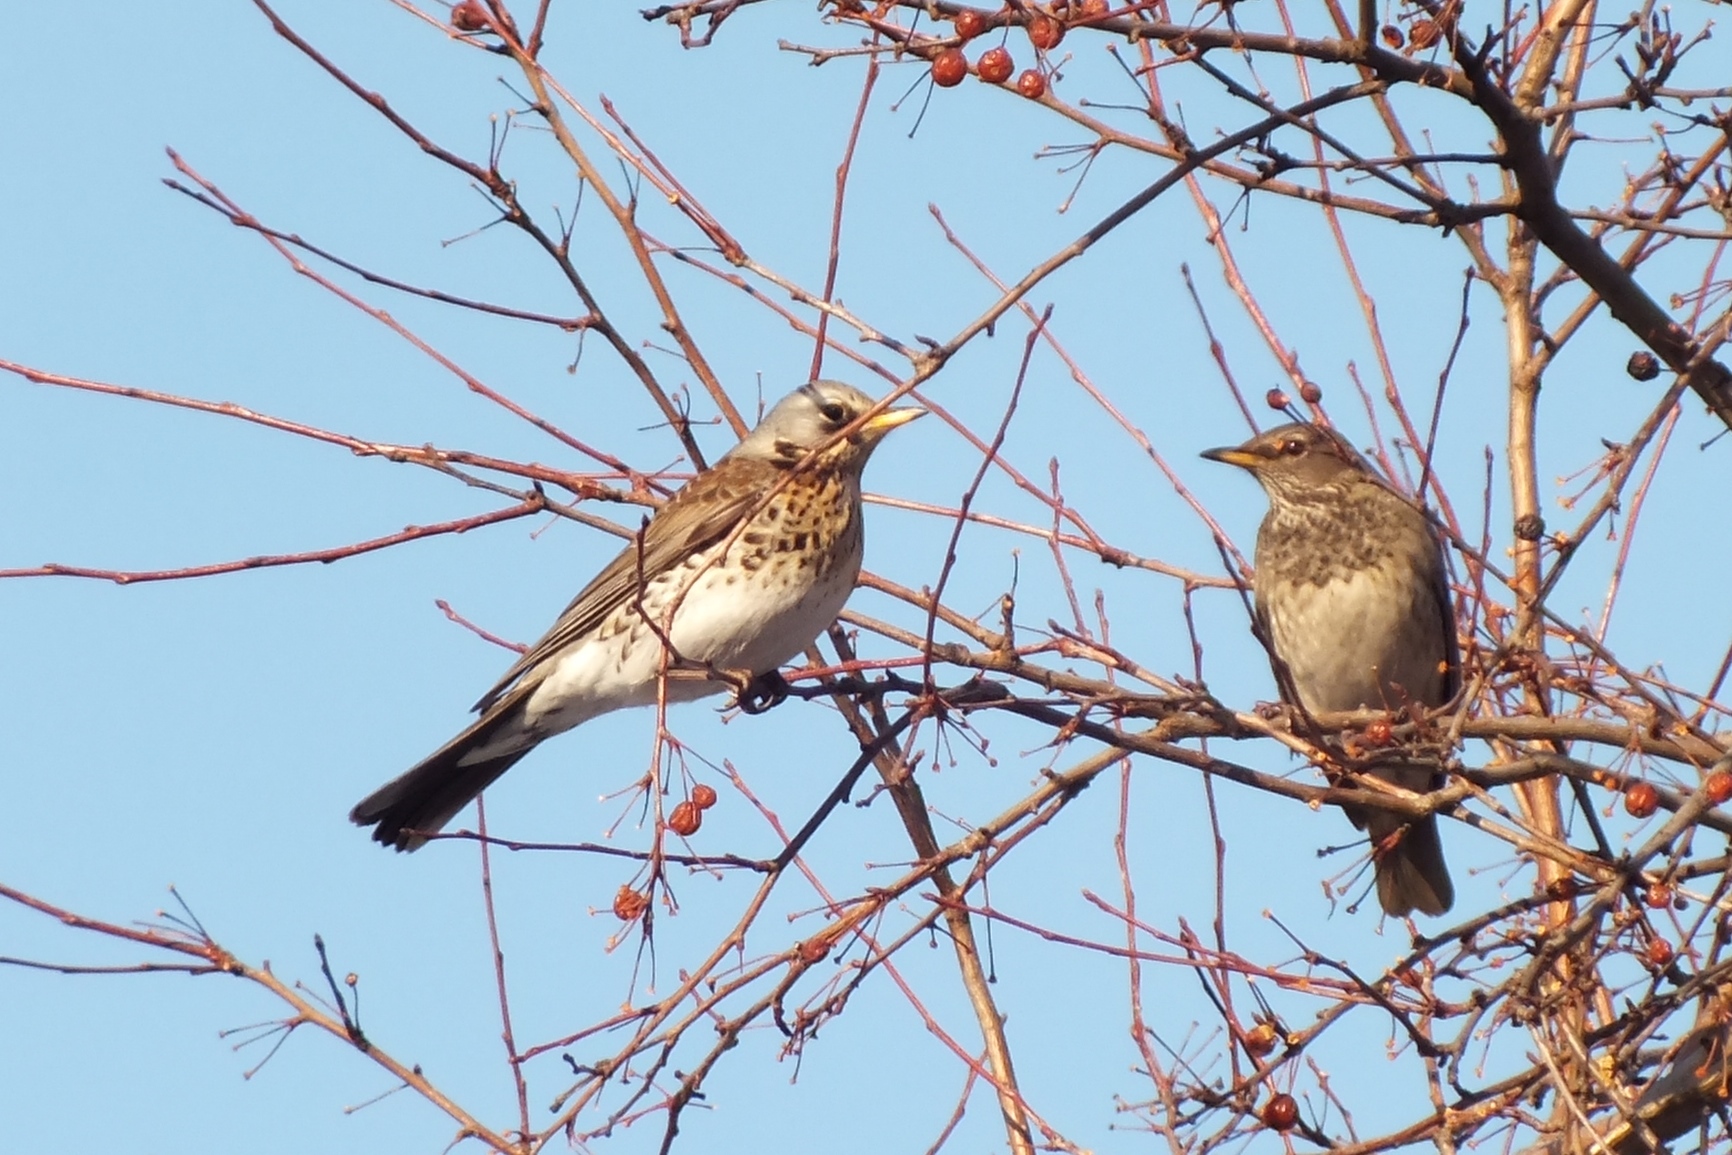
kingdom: Animalia
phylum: Chordata
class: Aves
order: Passeriformes
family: Turdidae
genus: Turdus
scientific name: Turdus pilaris
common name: Fieldfare
